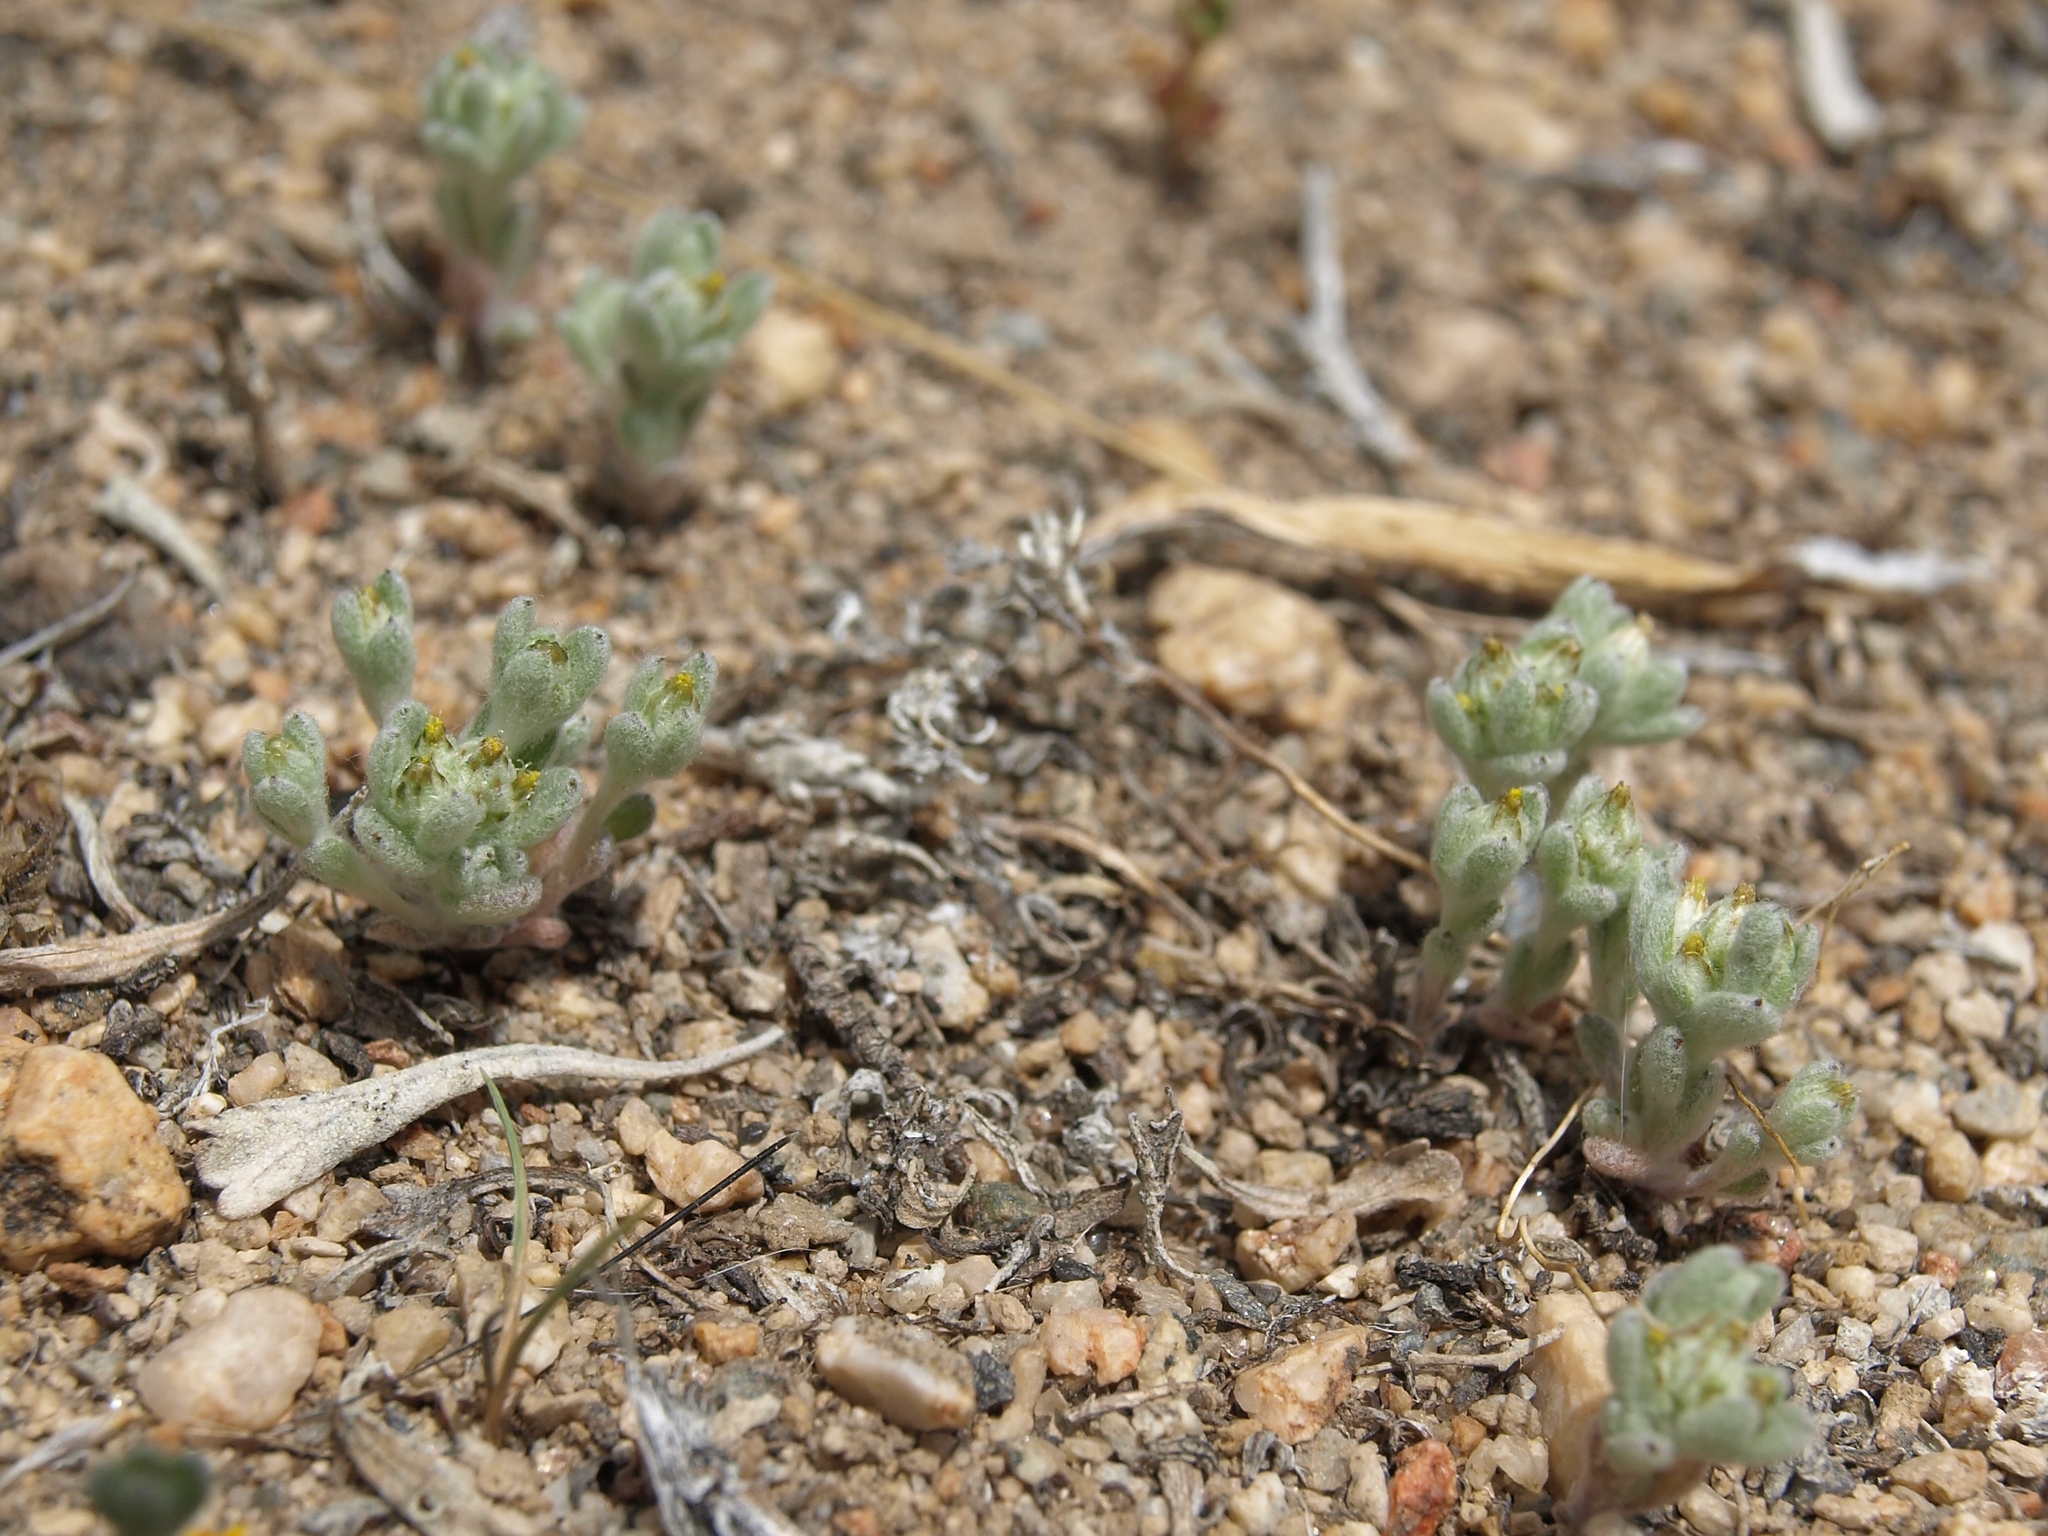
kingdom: Plantae
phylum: Tracheophyta
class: Magnoliopsida
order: Asterales
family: Asteraceae
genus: Logfia
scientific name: Logfia depressa
